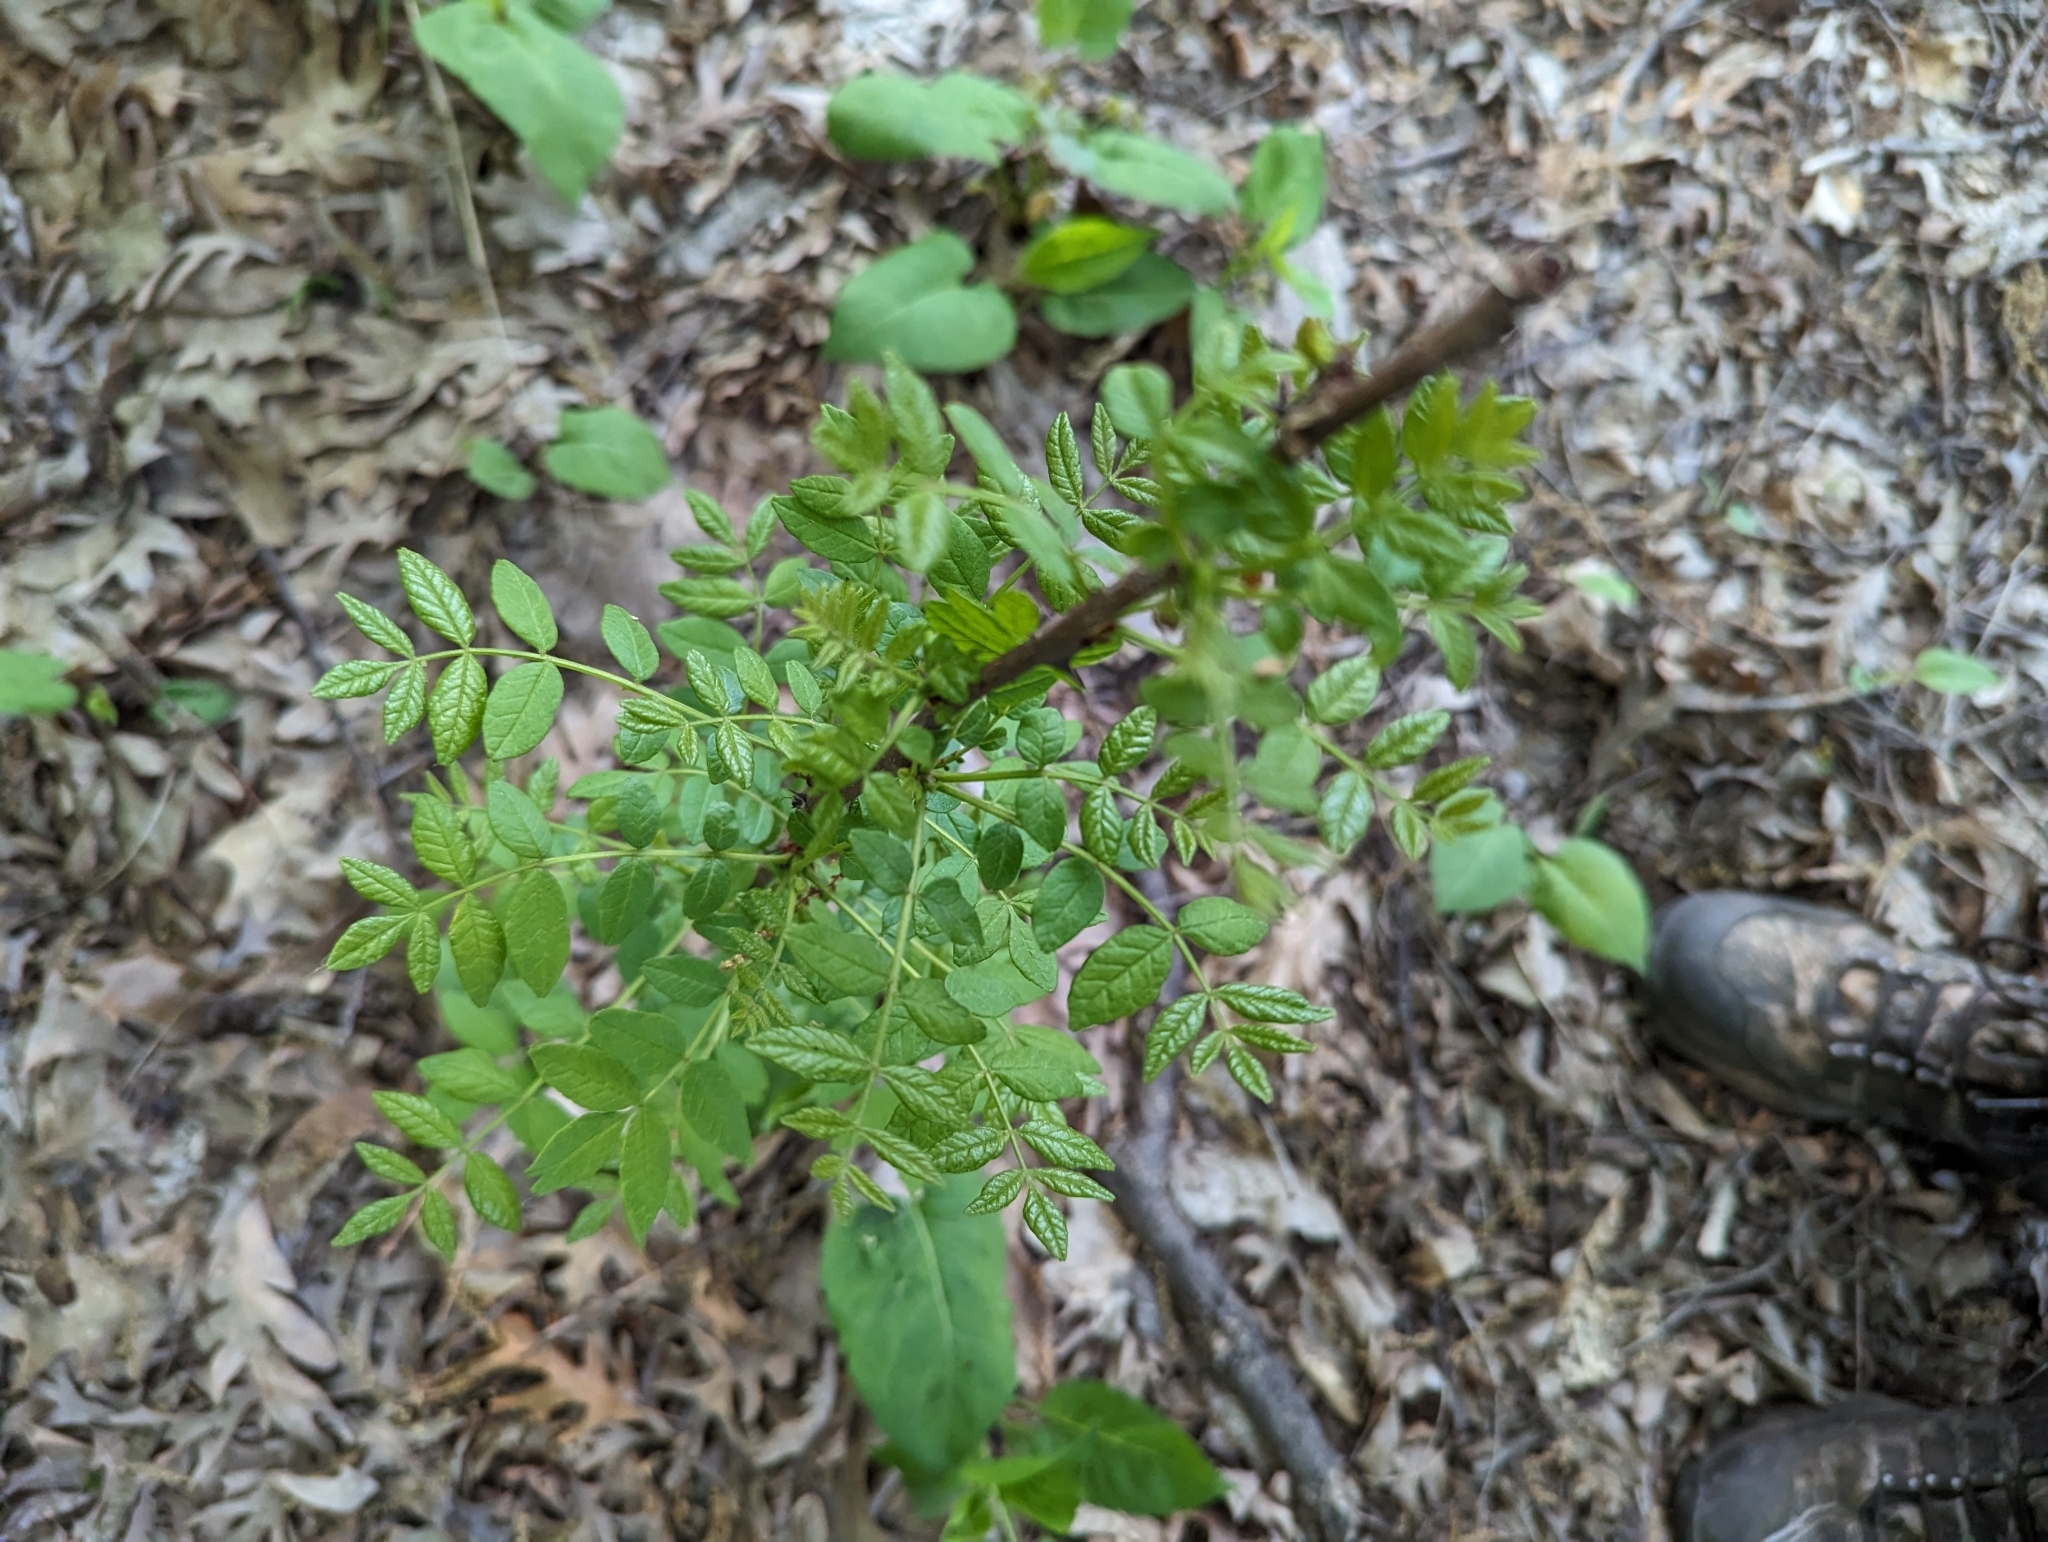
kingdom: Plantae
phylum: Tracheophyta
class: Magnoliopsida
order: Sapindales
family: Rutaceae
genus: Zanthoxylum
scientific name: Zanthoxylum americanum
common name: Northern prickly-ash
